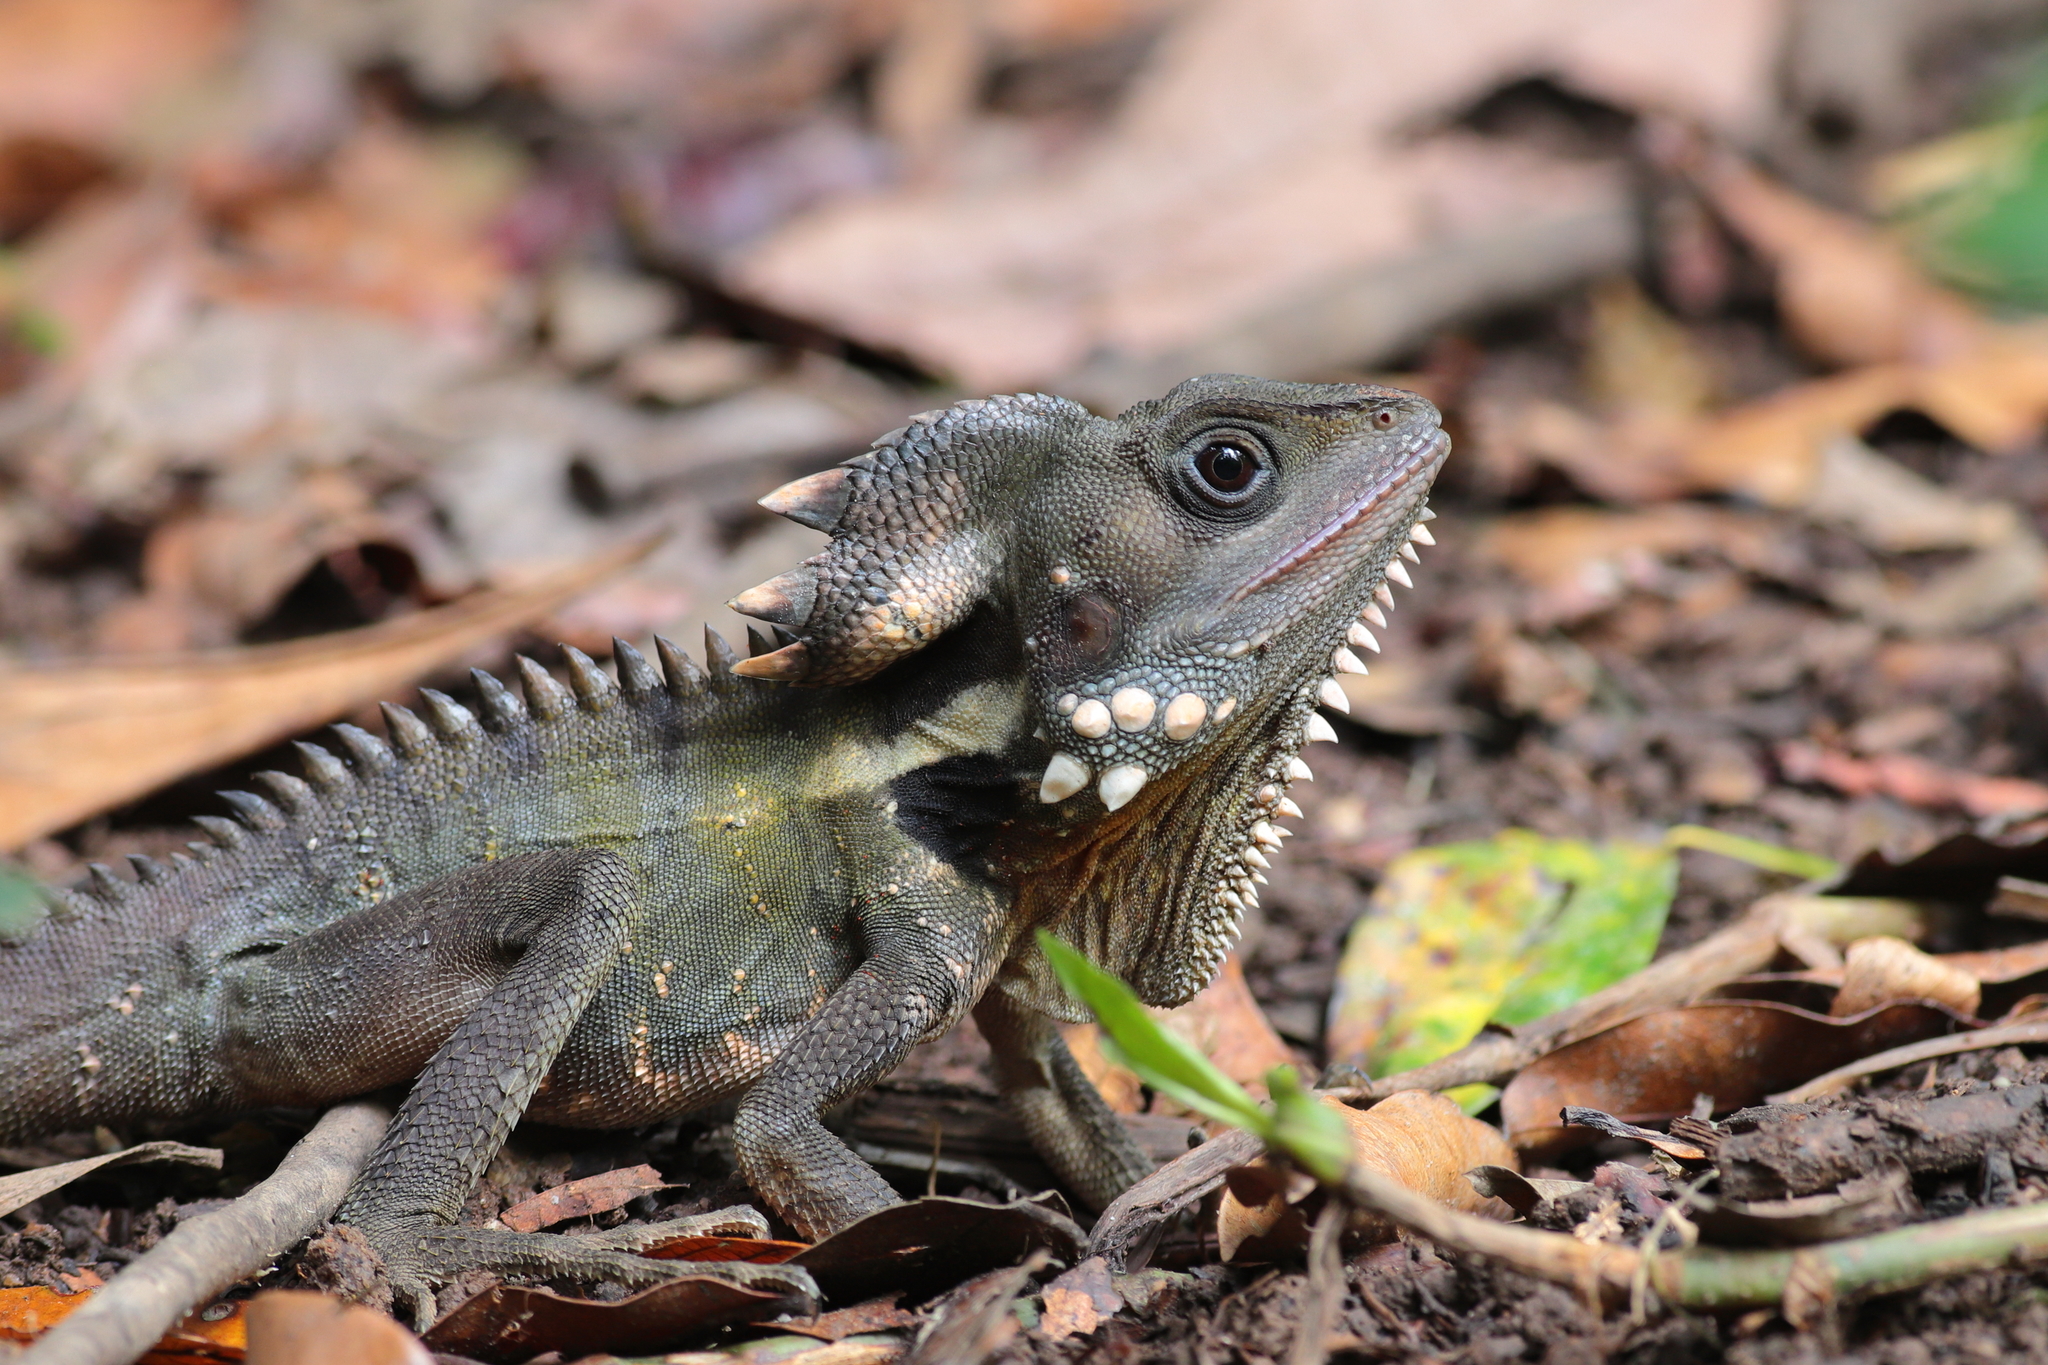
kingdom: Animalia
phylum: Chordata
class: Squamata
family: Agamidae
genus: Lophosaurus
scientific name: Lophosaurus boydii
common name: Boyd's forest dragon
